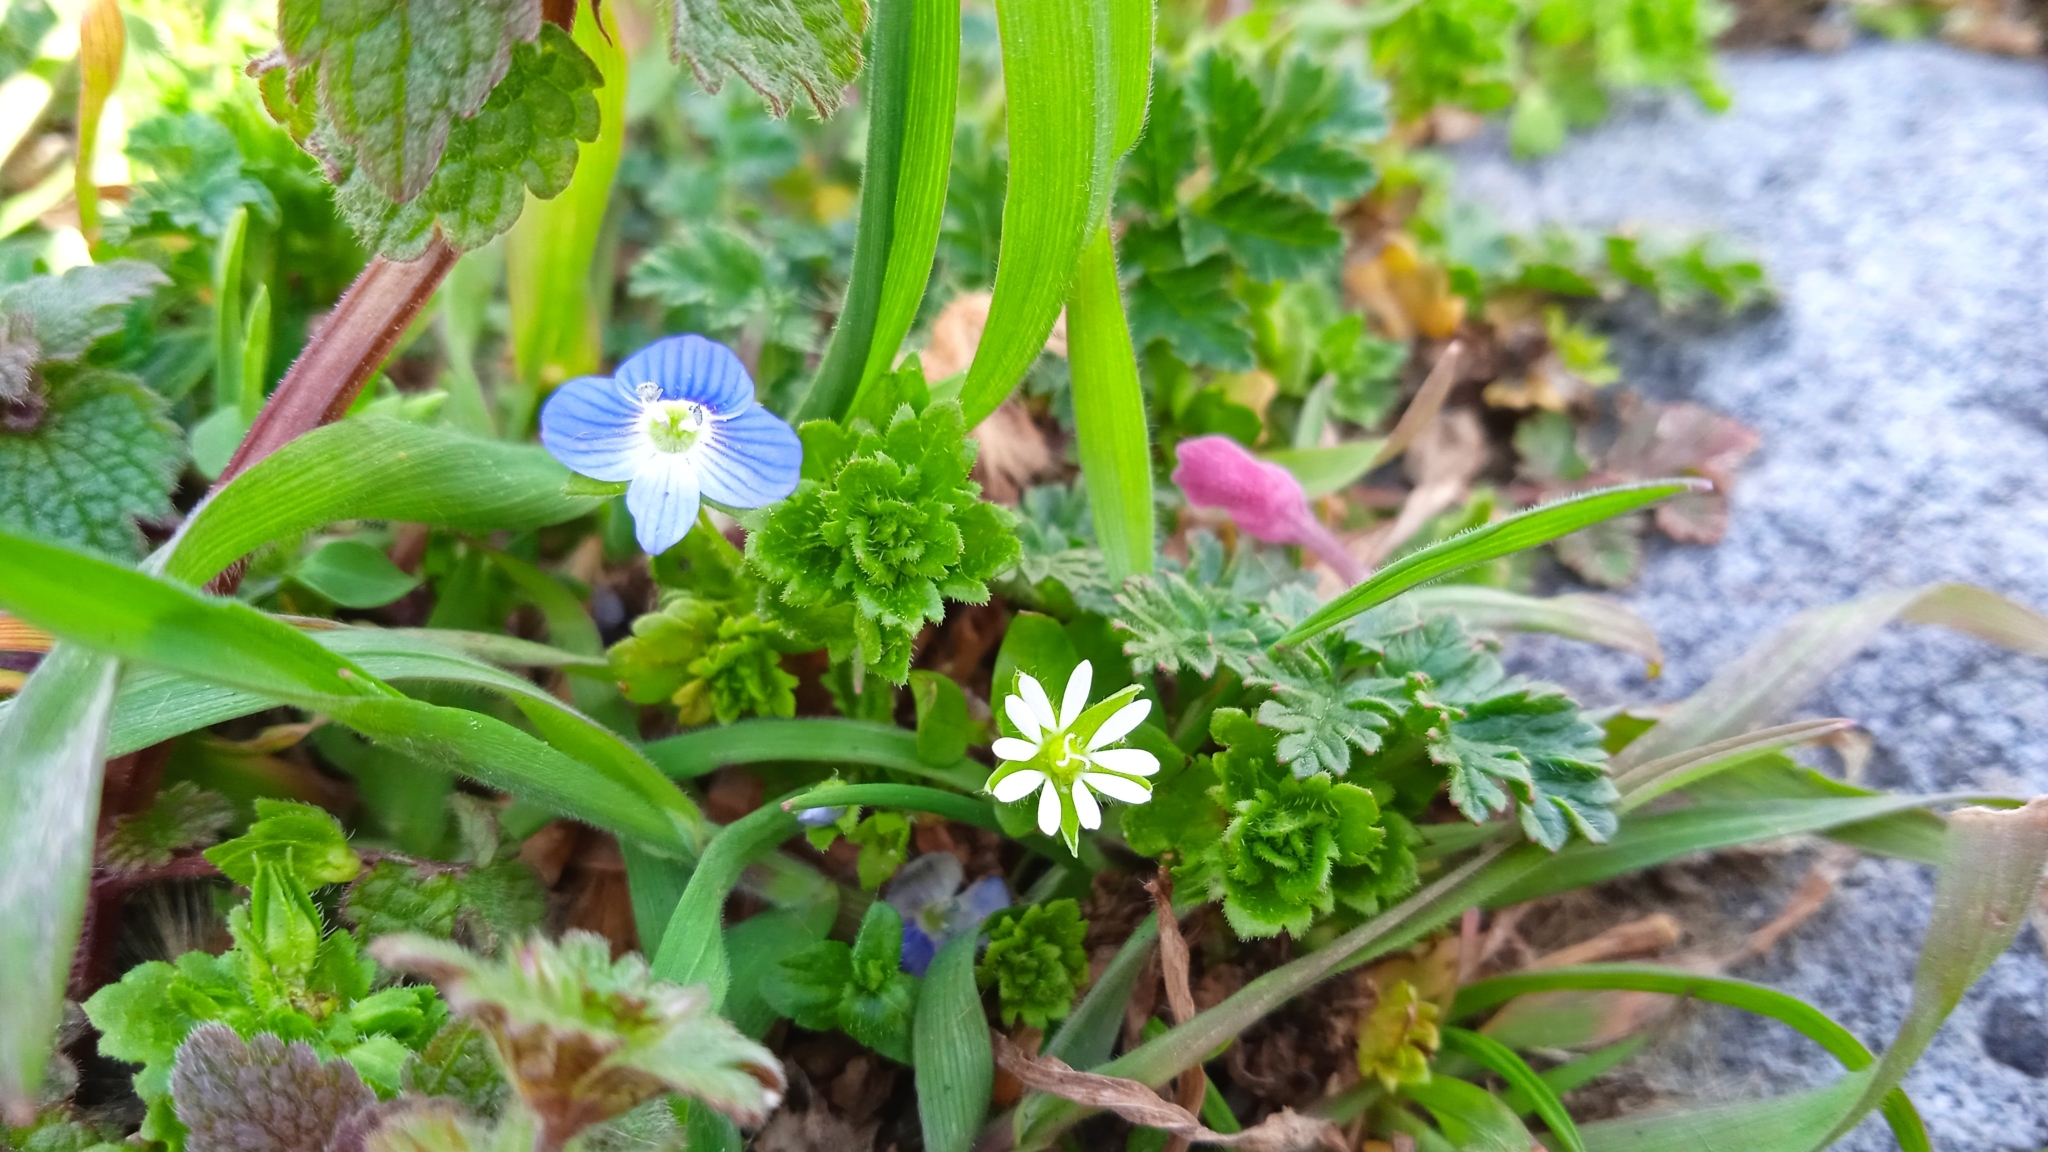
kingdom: Plantae
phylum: Tracheophyta
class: Magnoliopsida
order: Lamiales
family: Plantaginaceae
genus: Veronica
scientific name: Veronica persica
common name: Common field-speedwell
